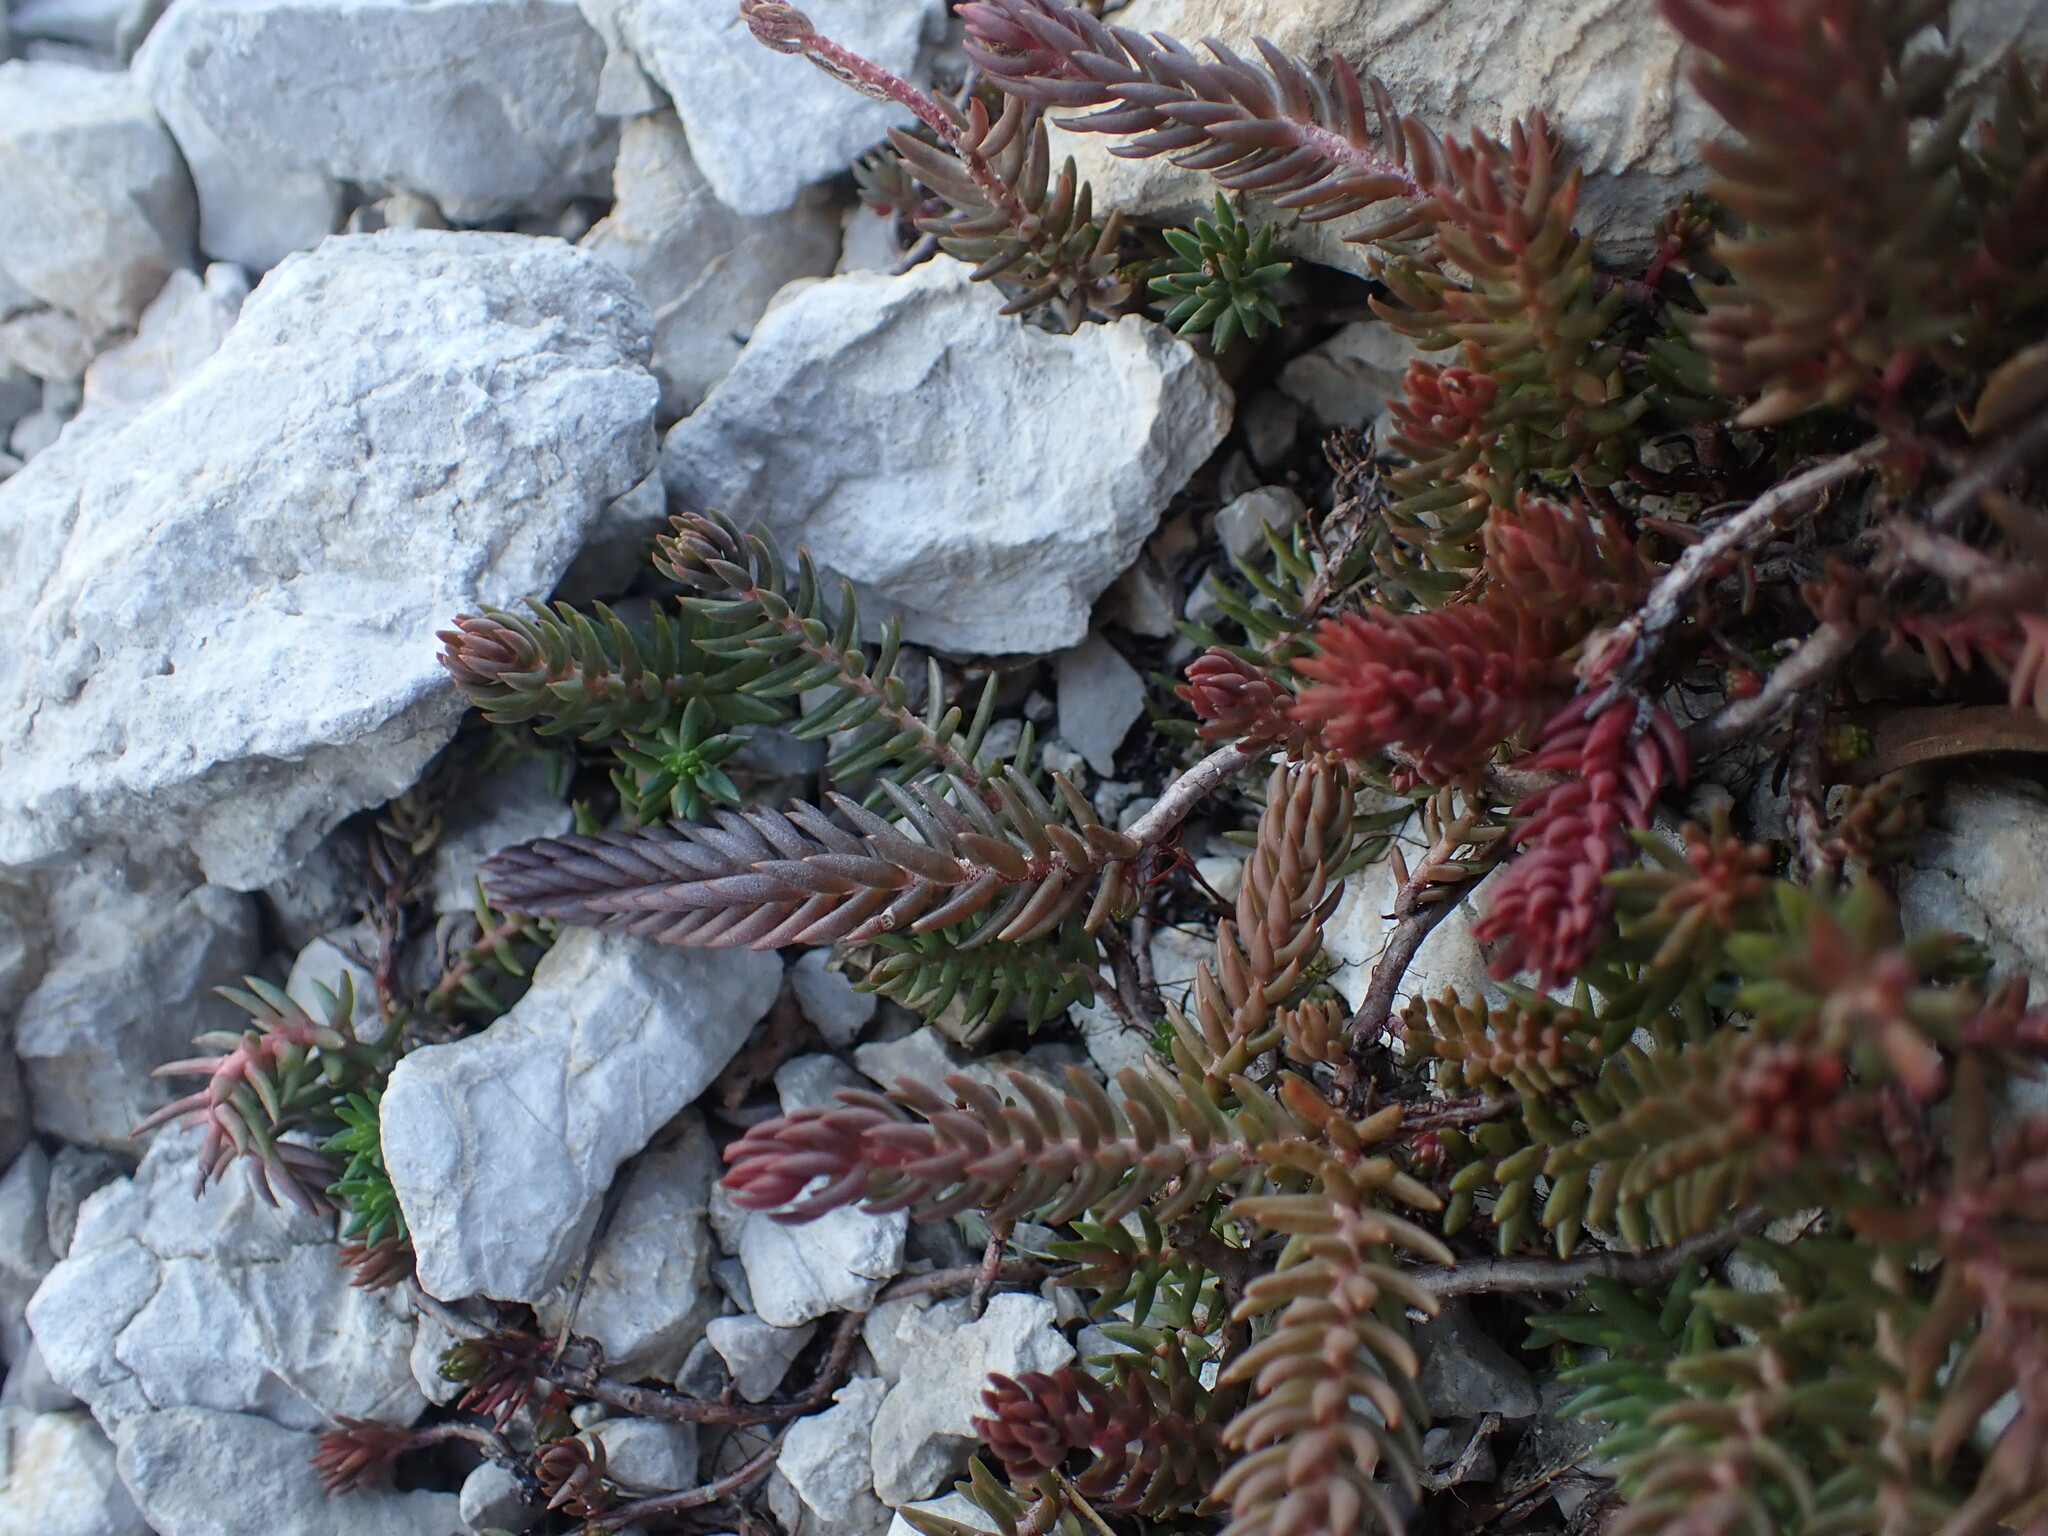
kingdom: Plantae
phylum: Tracheophyta
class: Magnoliopsida
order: Saxifragales
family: Crassulaceae
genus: Petrosedum
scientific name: Petrosedum ochroleucum
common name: European stonecrop
